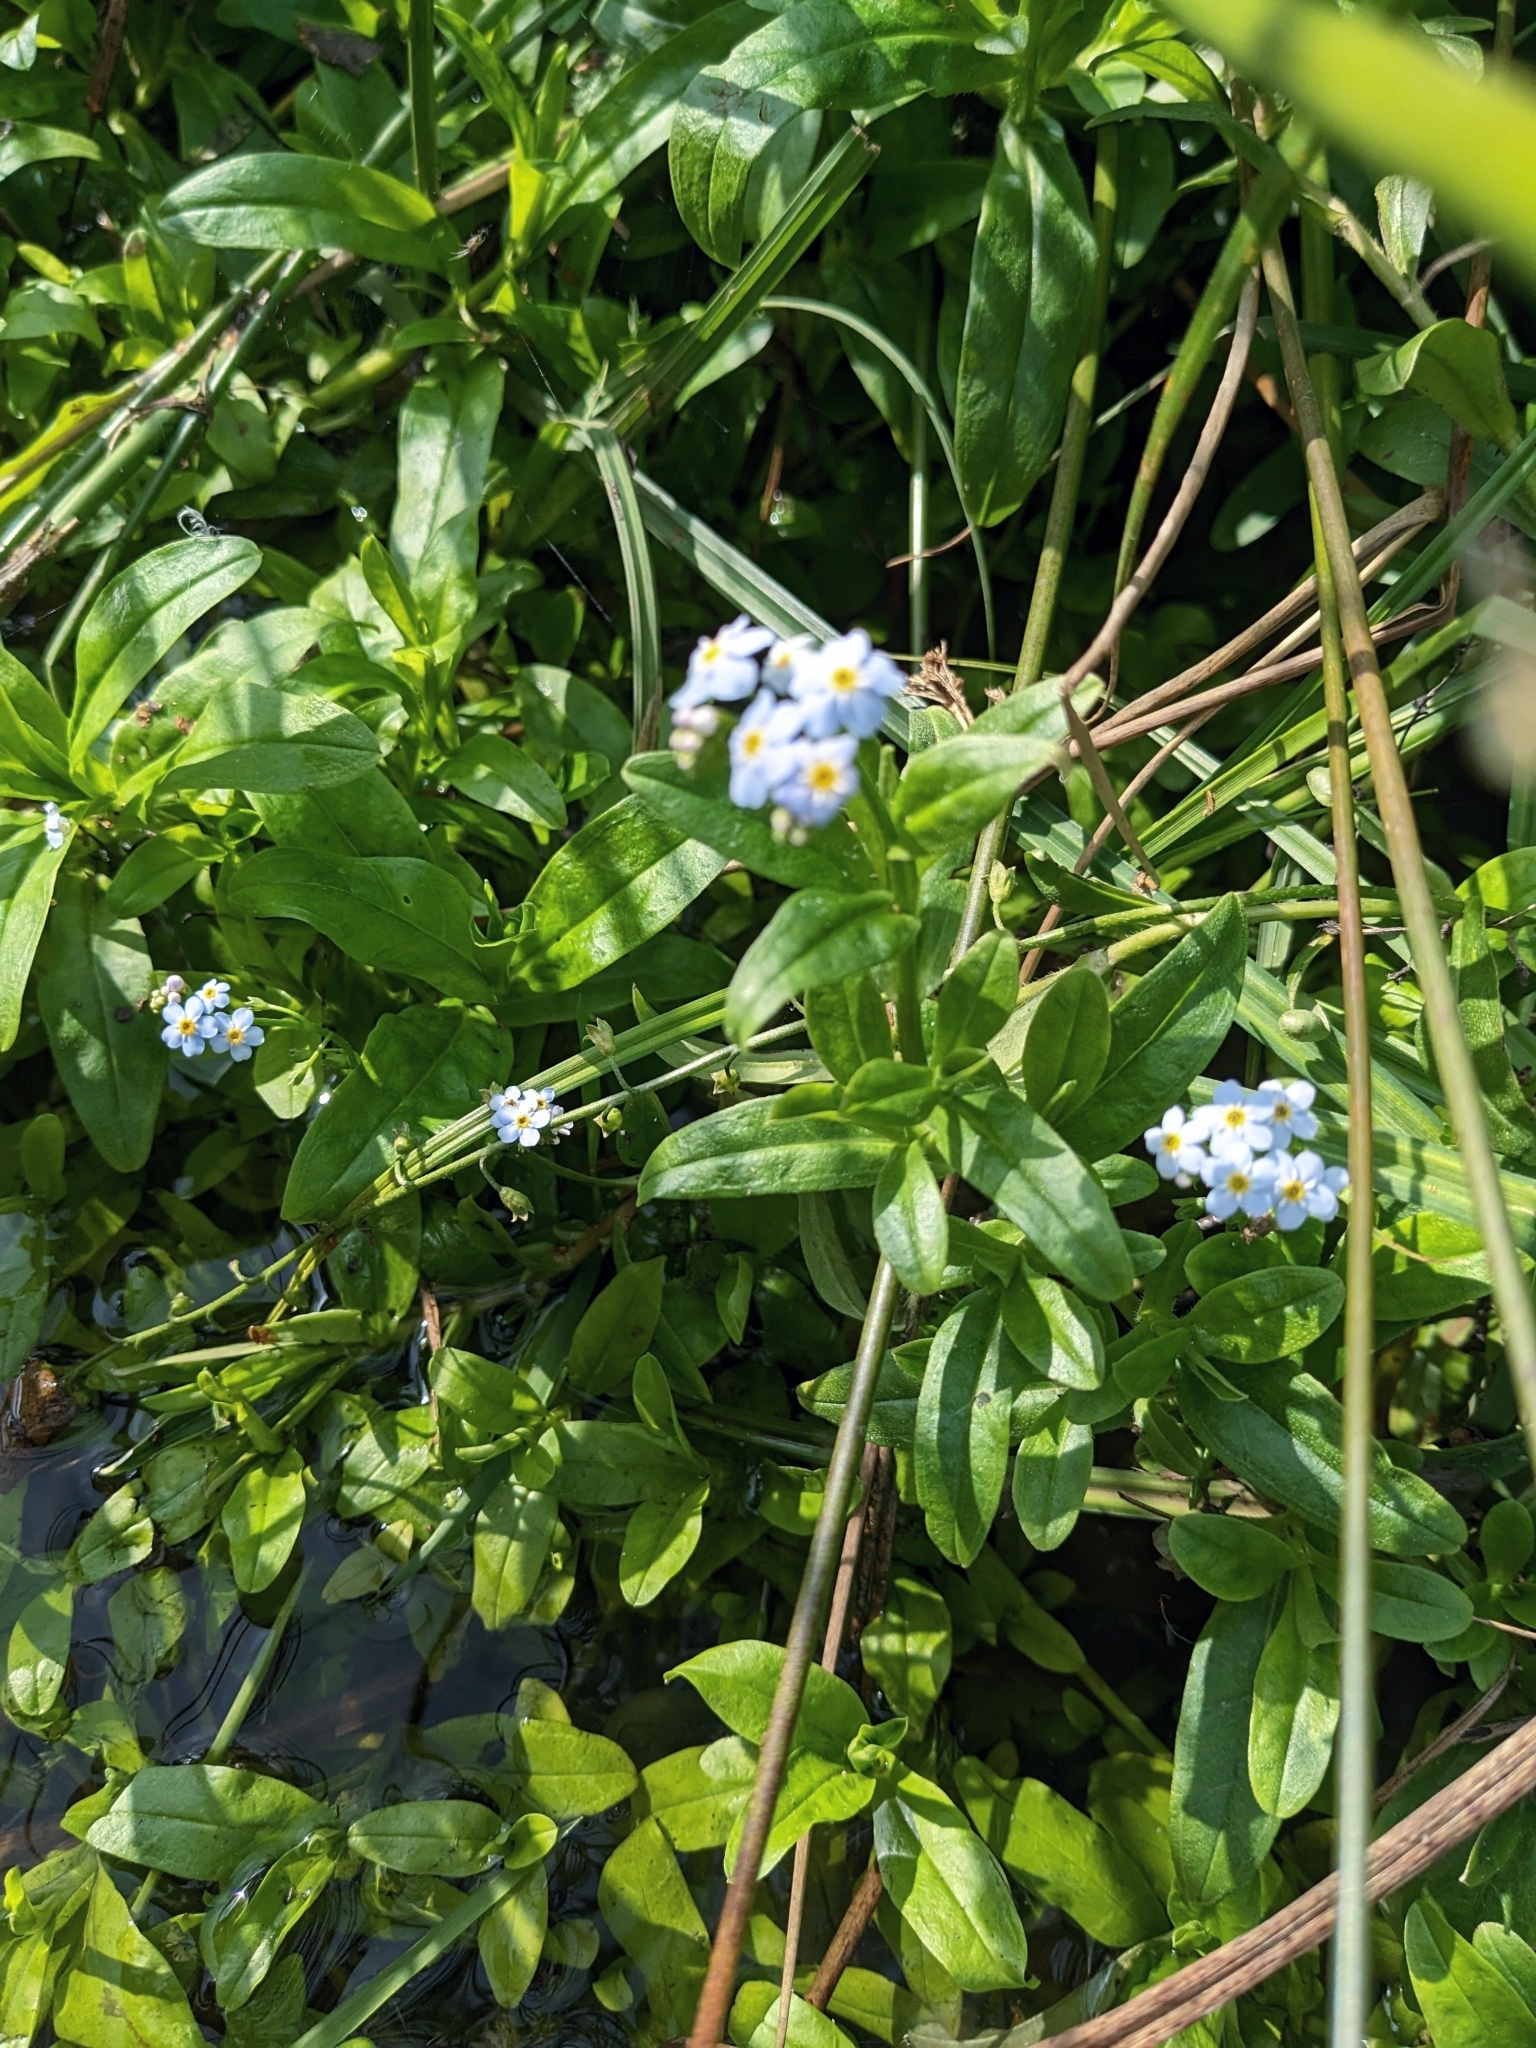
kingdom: Plantae
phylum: Tracheophyta
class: Magnoliopsida
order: Boraginales
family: Boraginaceae
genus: Myosotis
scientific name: Myosotis scorpioides
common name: Water forget-me-not
